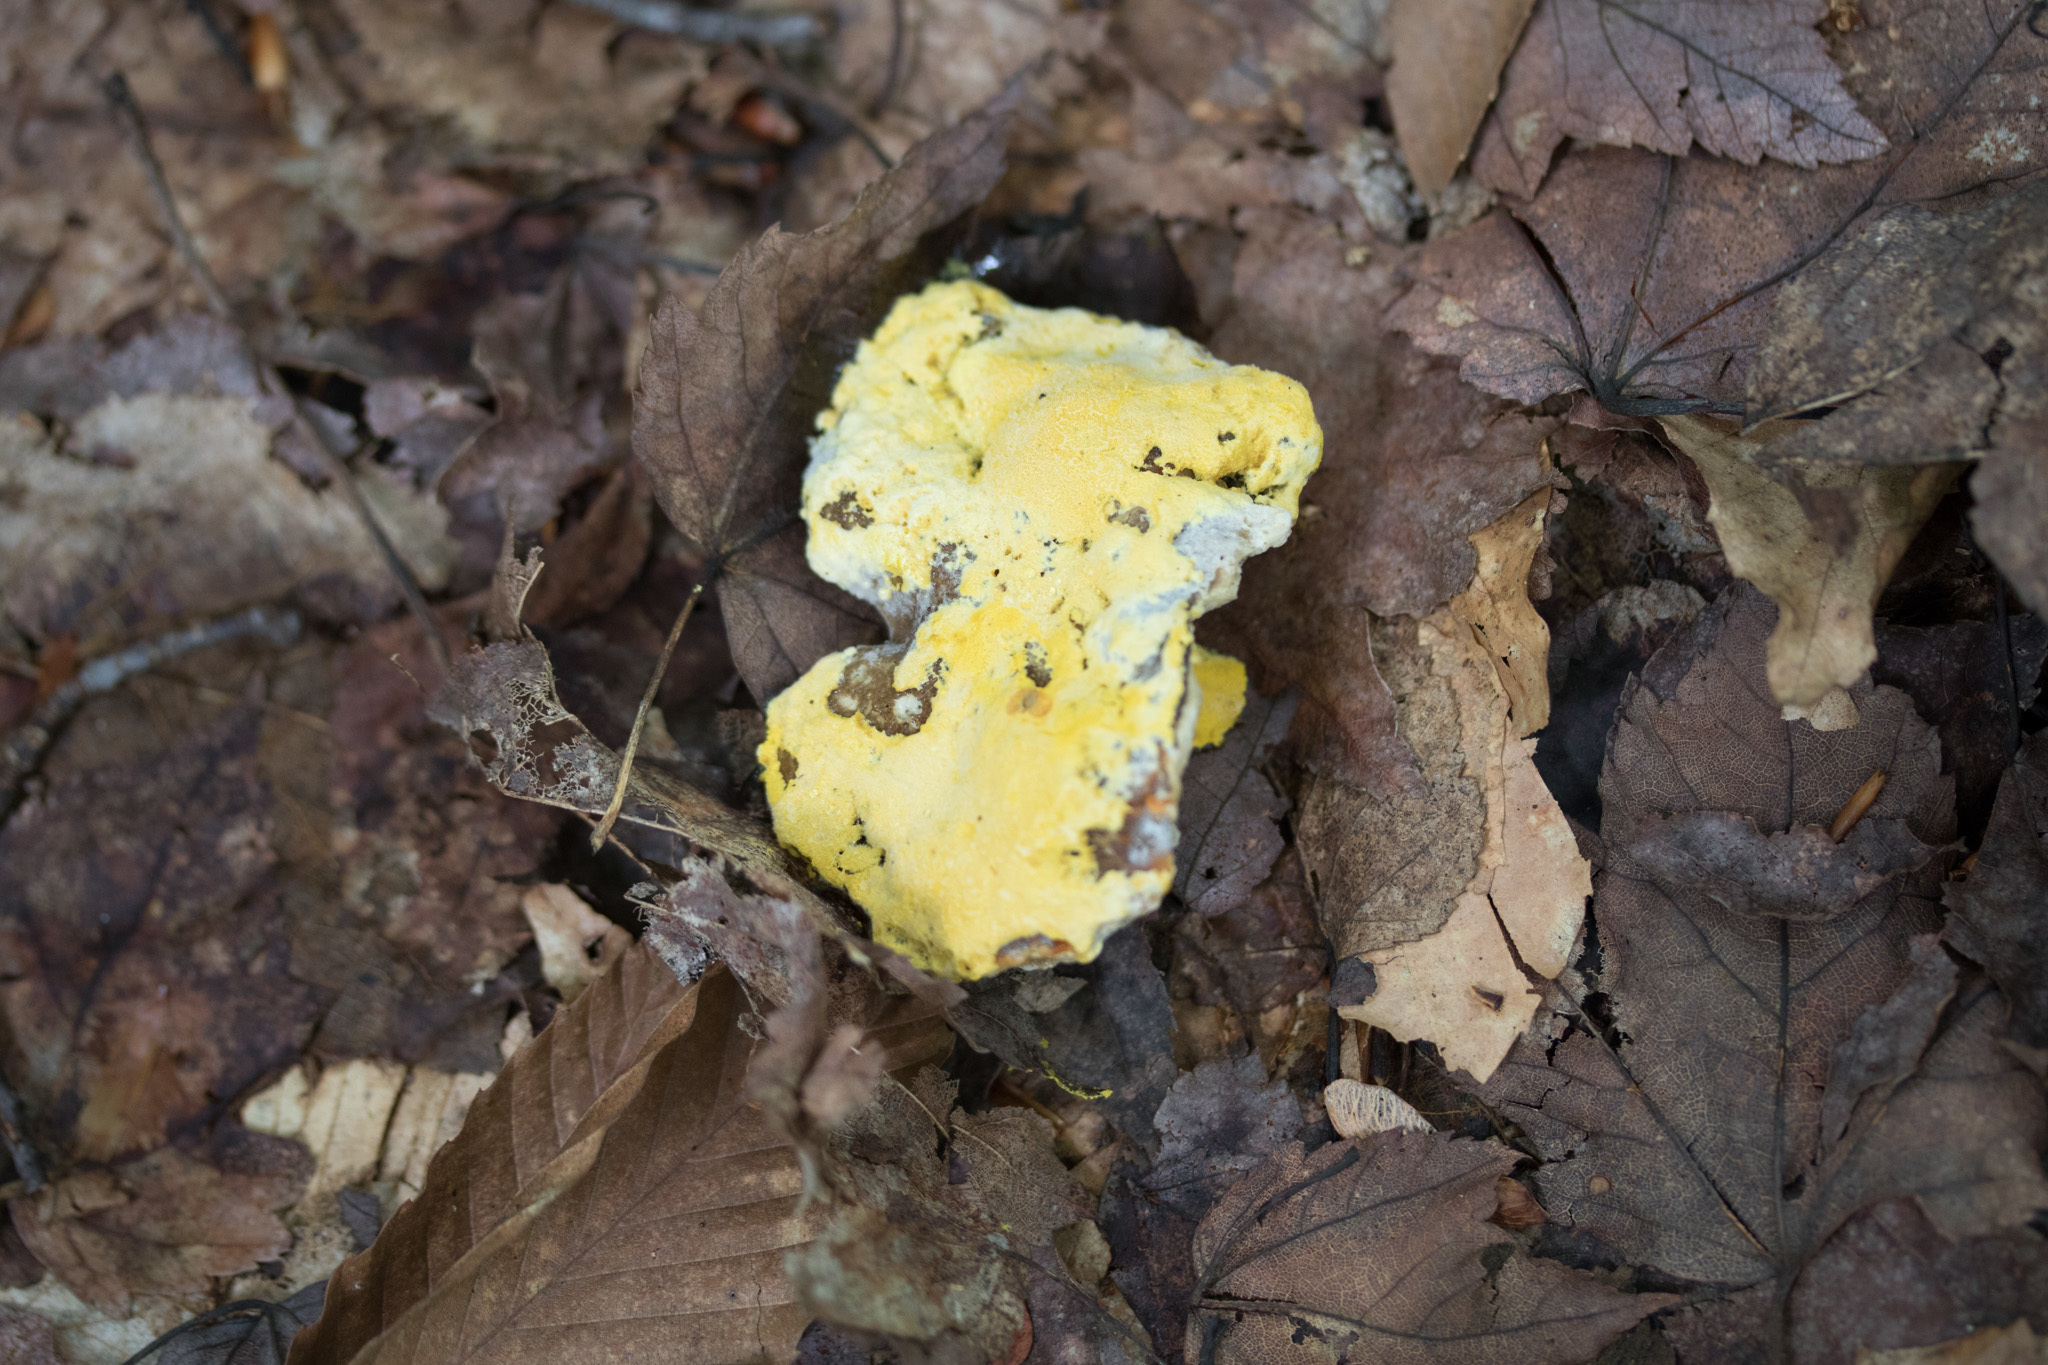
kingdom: Fungi
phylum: Ascomycota
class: Sordariomycetes
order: Hypocreales
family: Hypocreaceae
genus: Hypomyces
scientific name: Hypomyces chrysospermus
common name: Bolete mould
